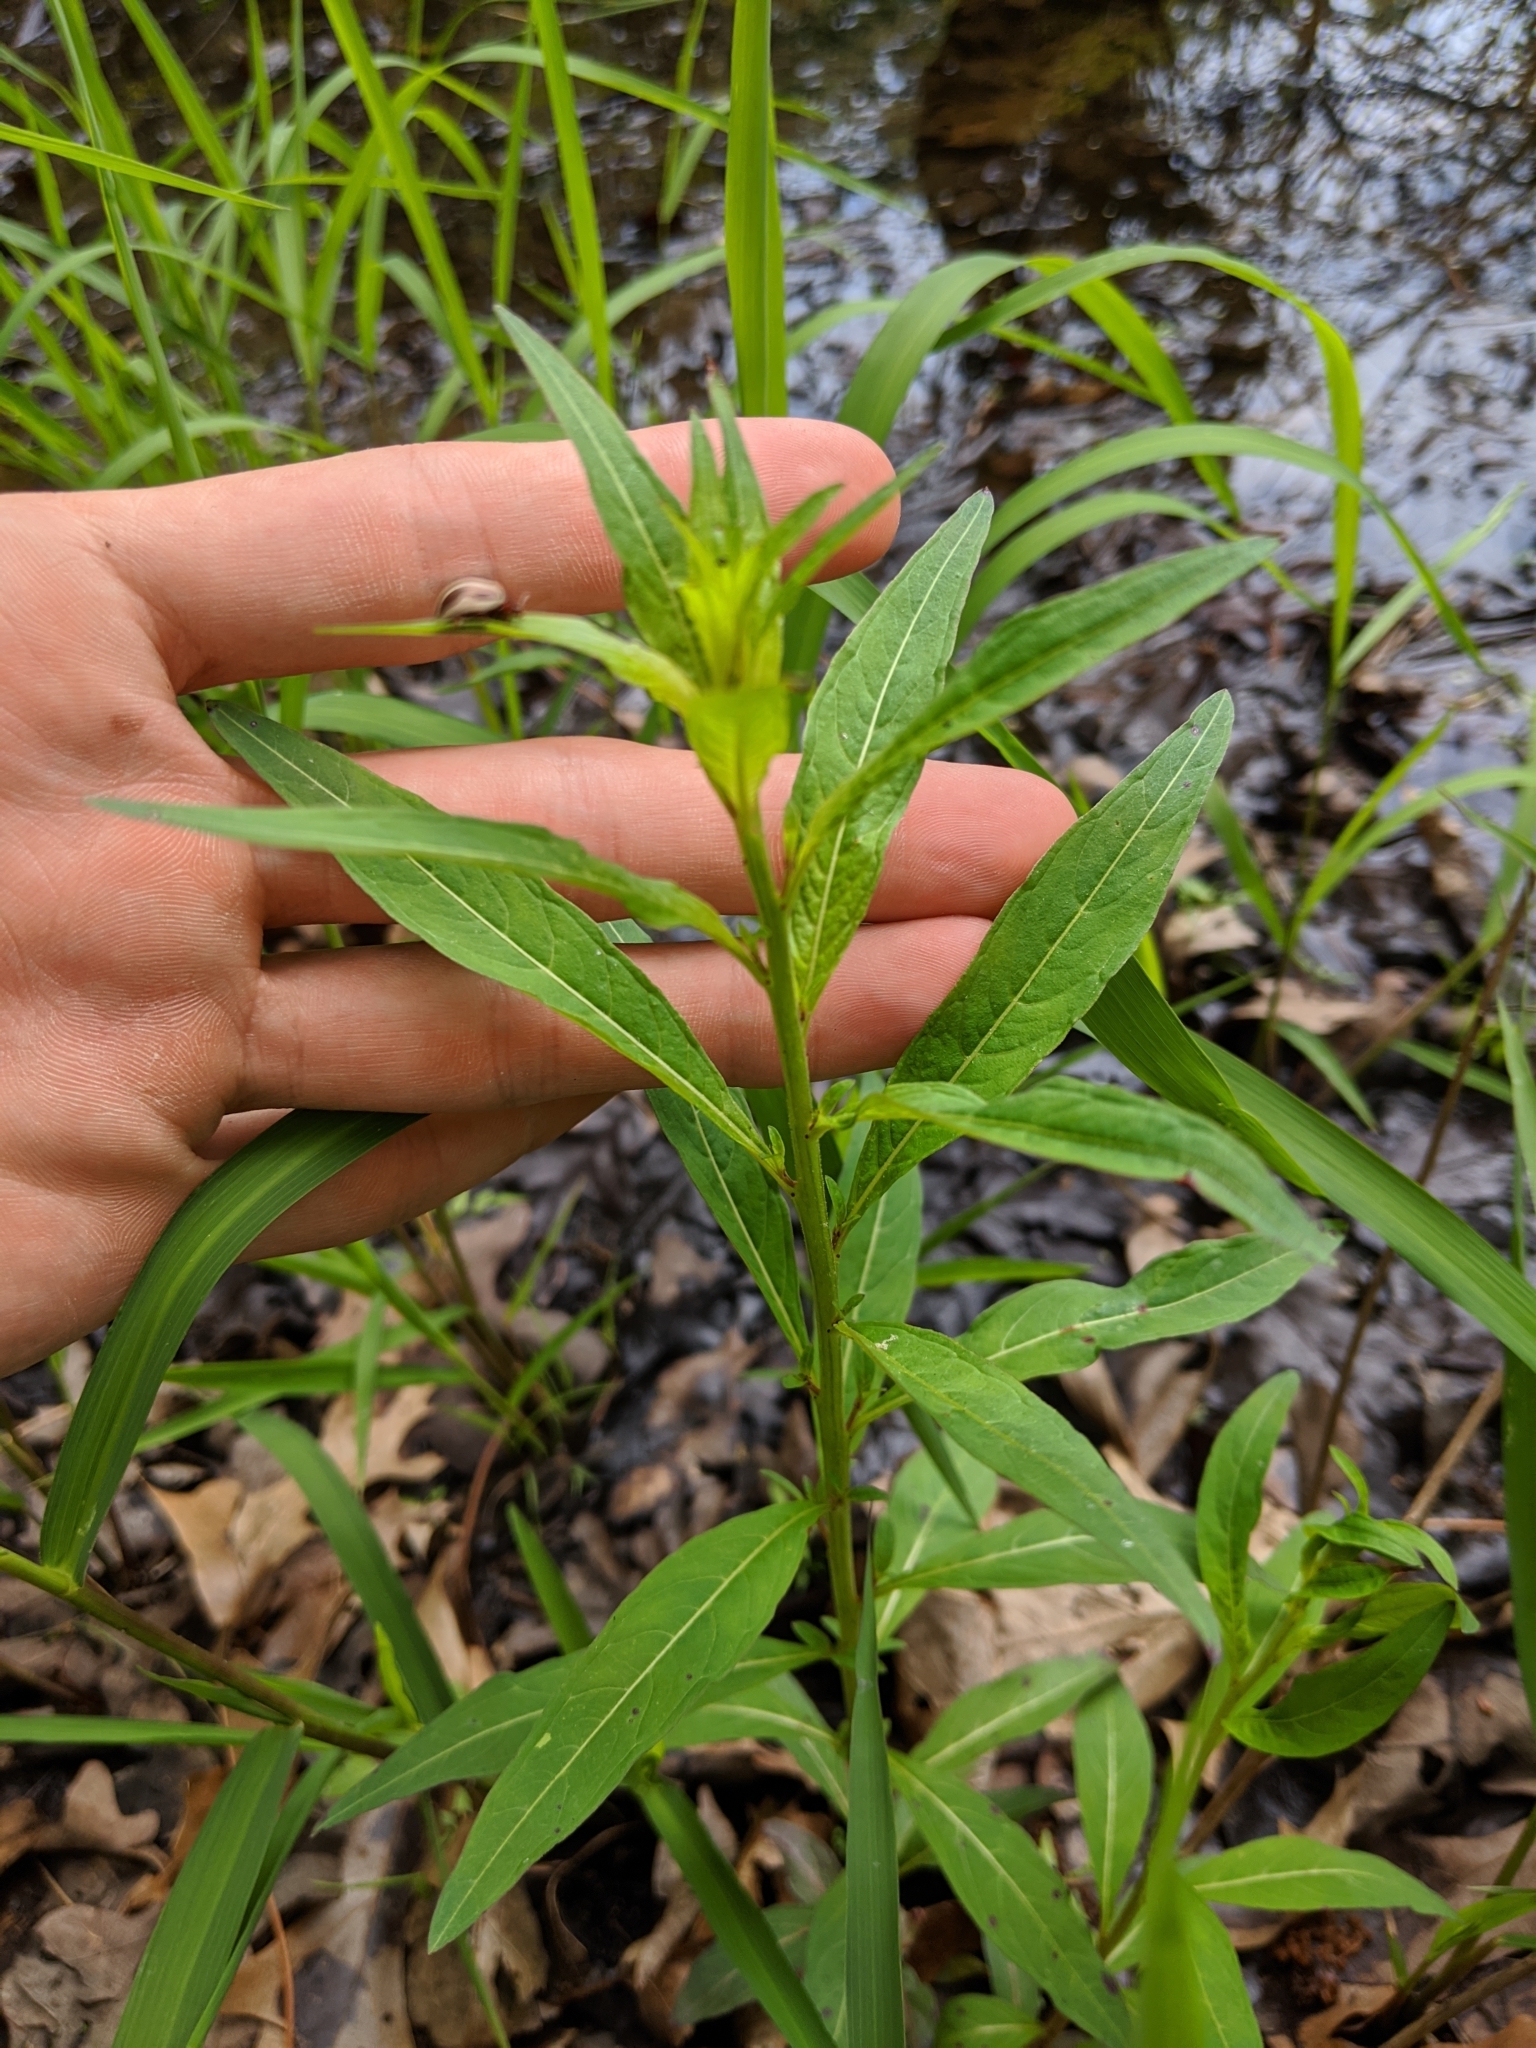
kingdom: Plantae
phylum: Tracheophyta
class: Magnoliopsida
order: Myrtales
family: Onagraceae
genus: Ludwigia
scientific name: Ludwigia alternifolia
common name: Rattlebox
